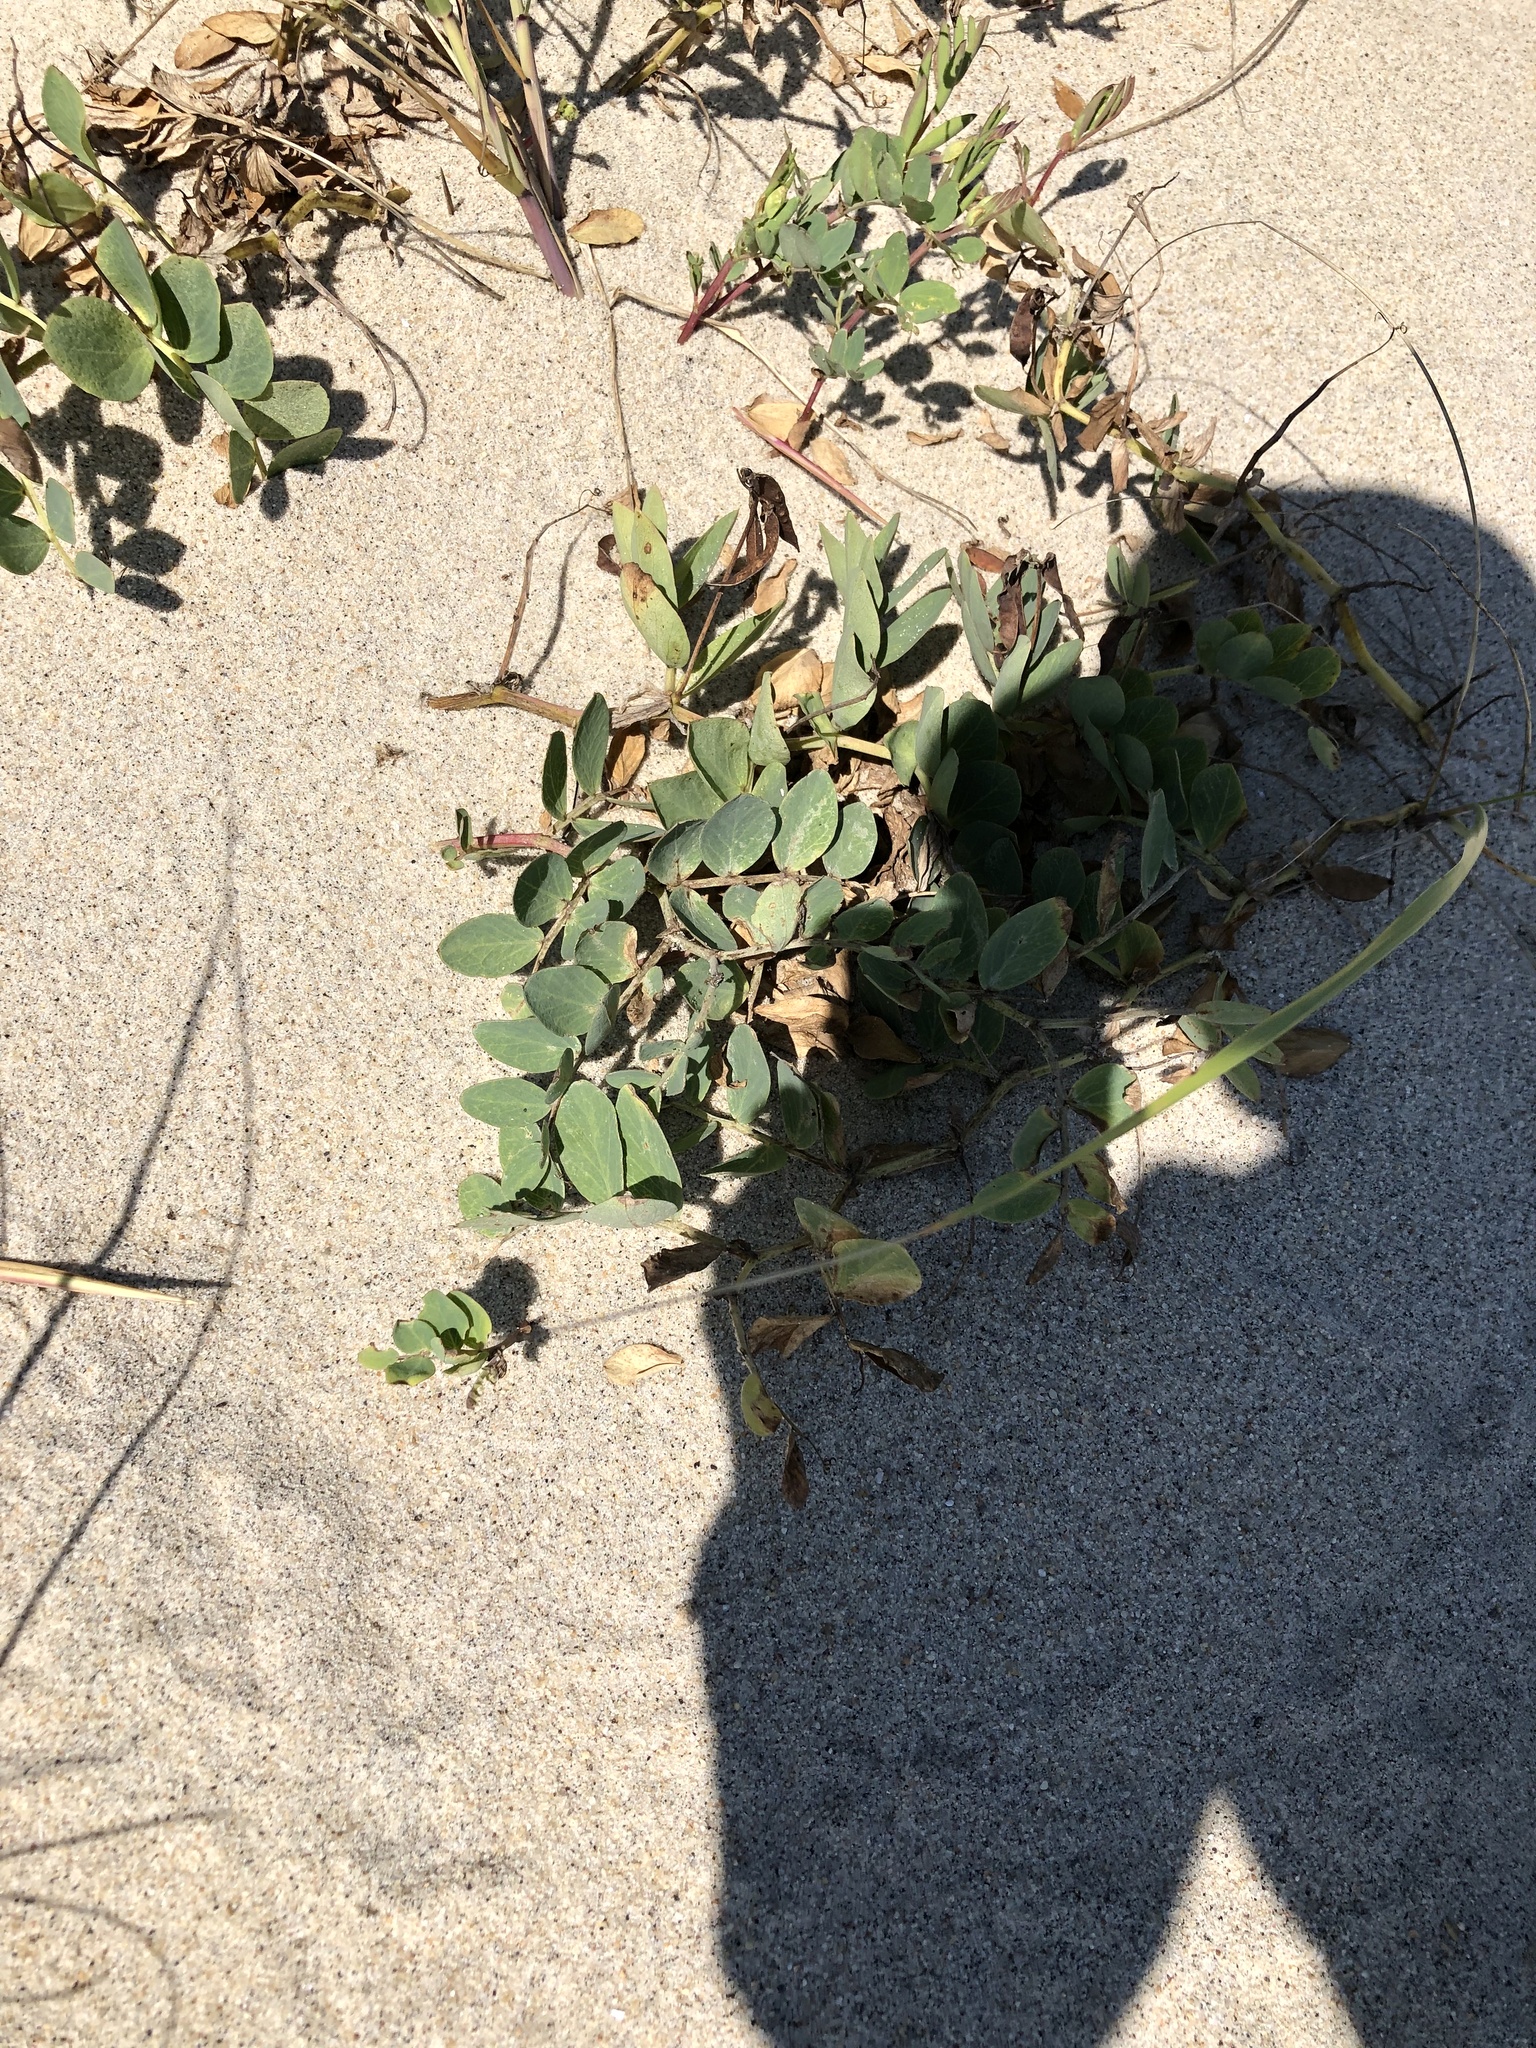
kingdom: Plantae
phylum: Tracheophyta
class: Magnoliopsida
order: Fabales
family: Fabaceae
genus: Lathyrus
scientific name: Lathyrus japonicus
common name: Sea pea
